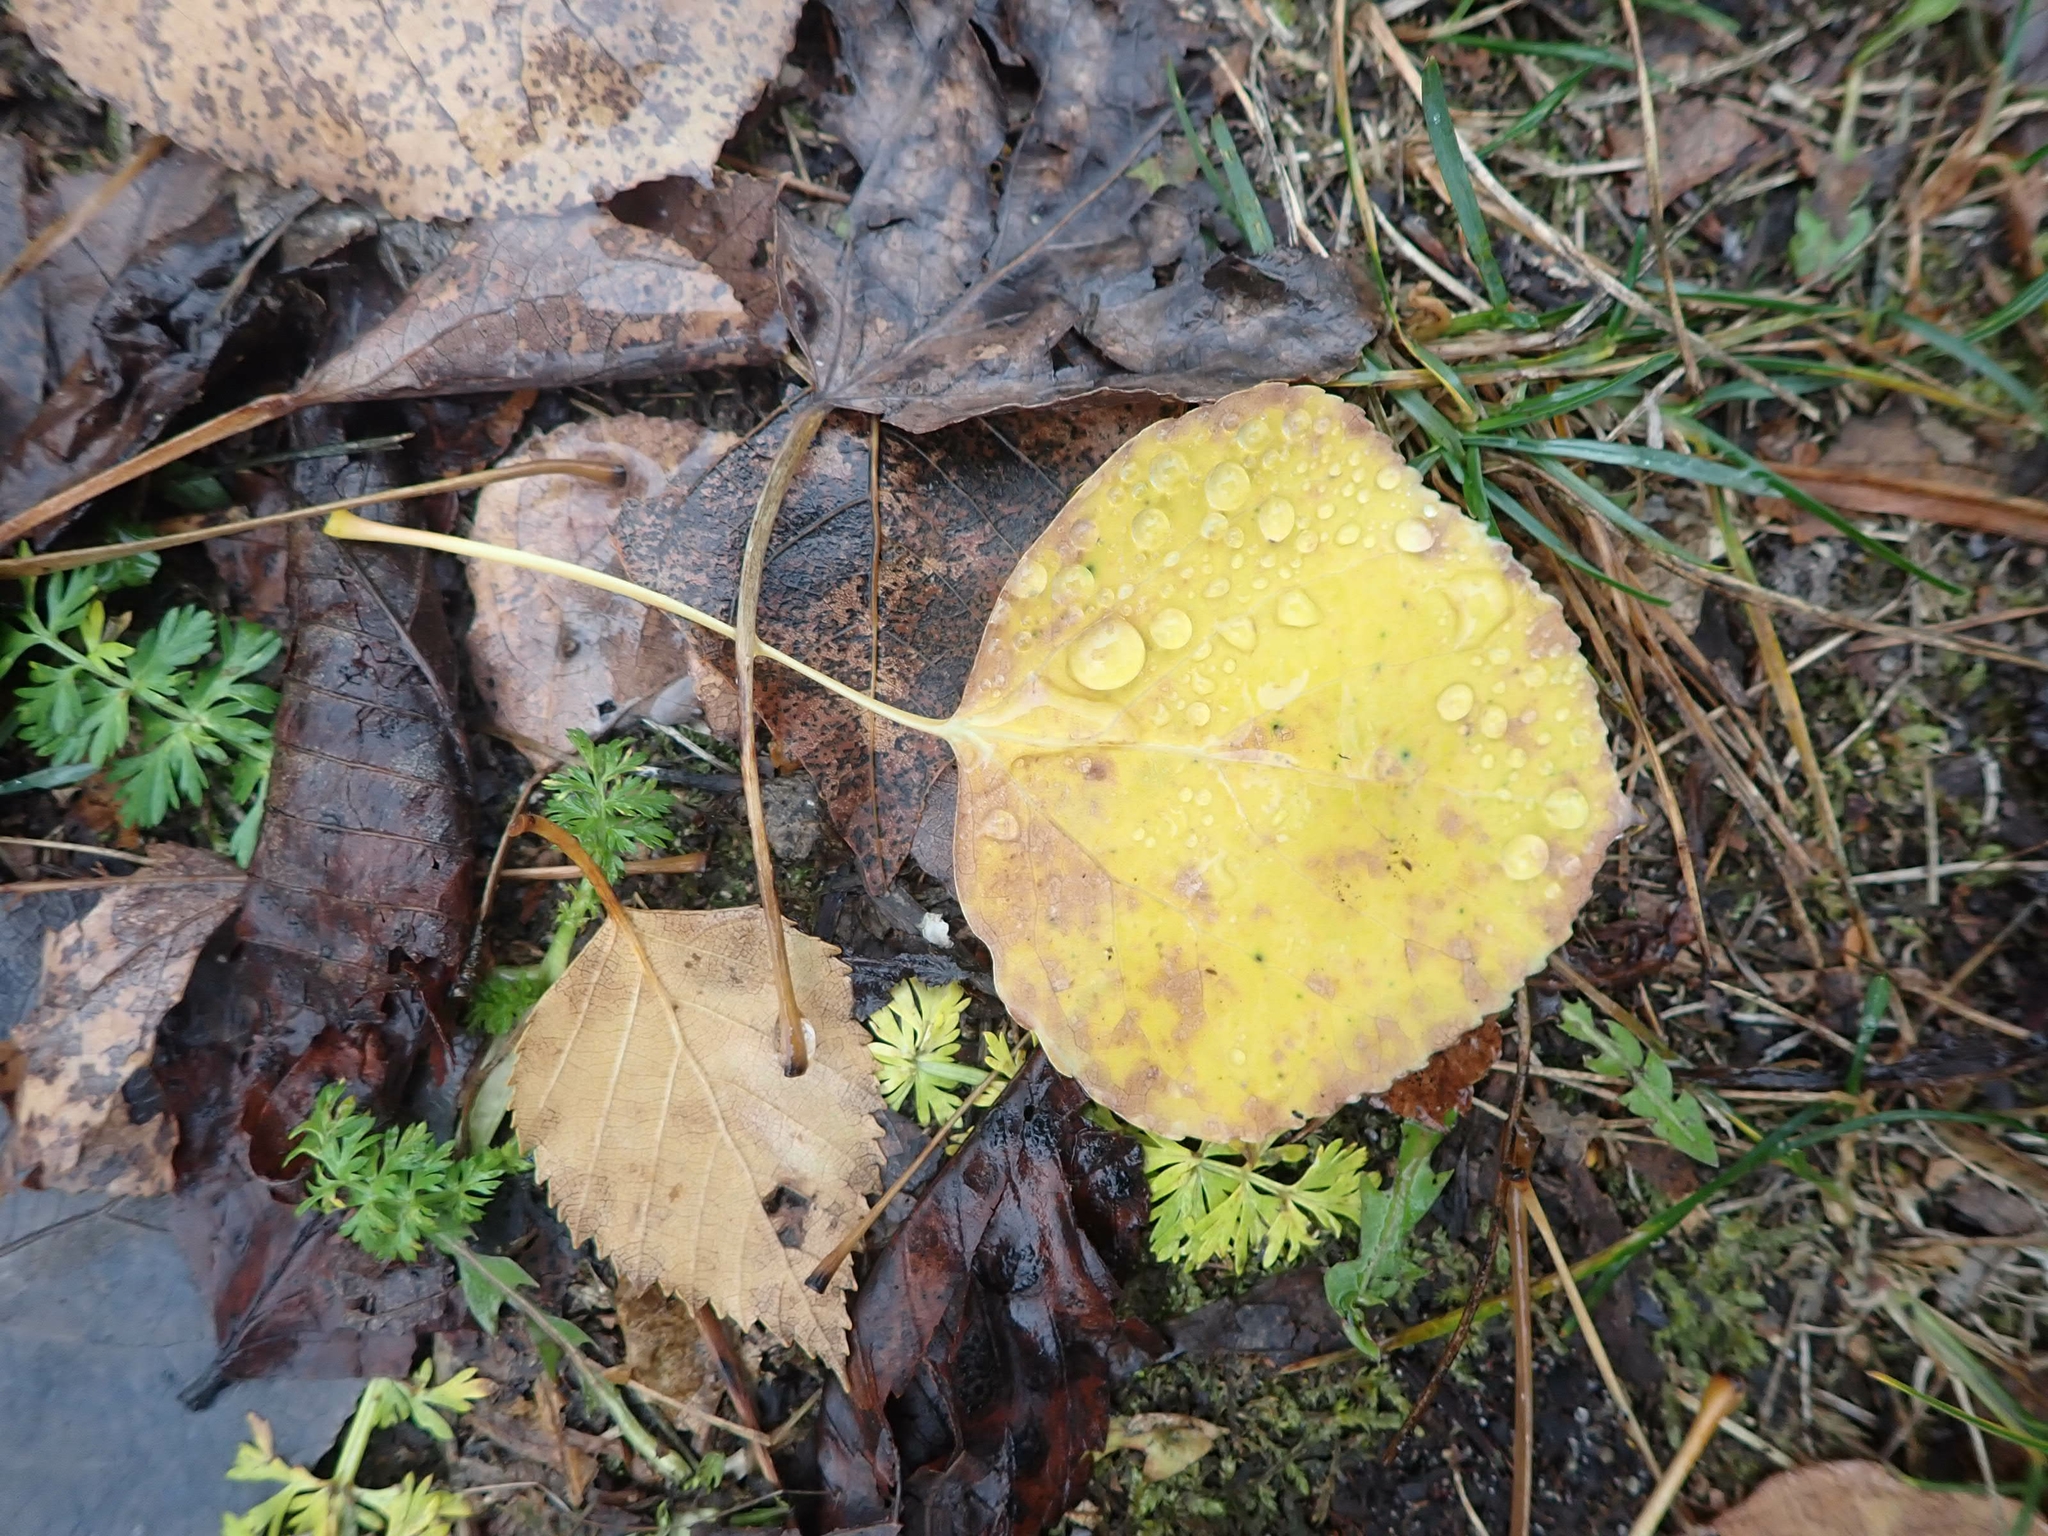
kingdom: Plantae
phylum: Tracheophyta
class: Magnoliopsida
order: Malpighiales
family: Salicaceae
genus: Populus
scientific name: Populus tremuloides
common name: Quaking aspen
